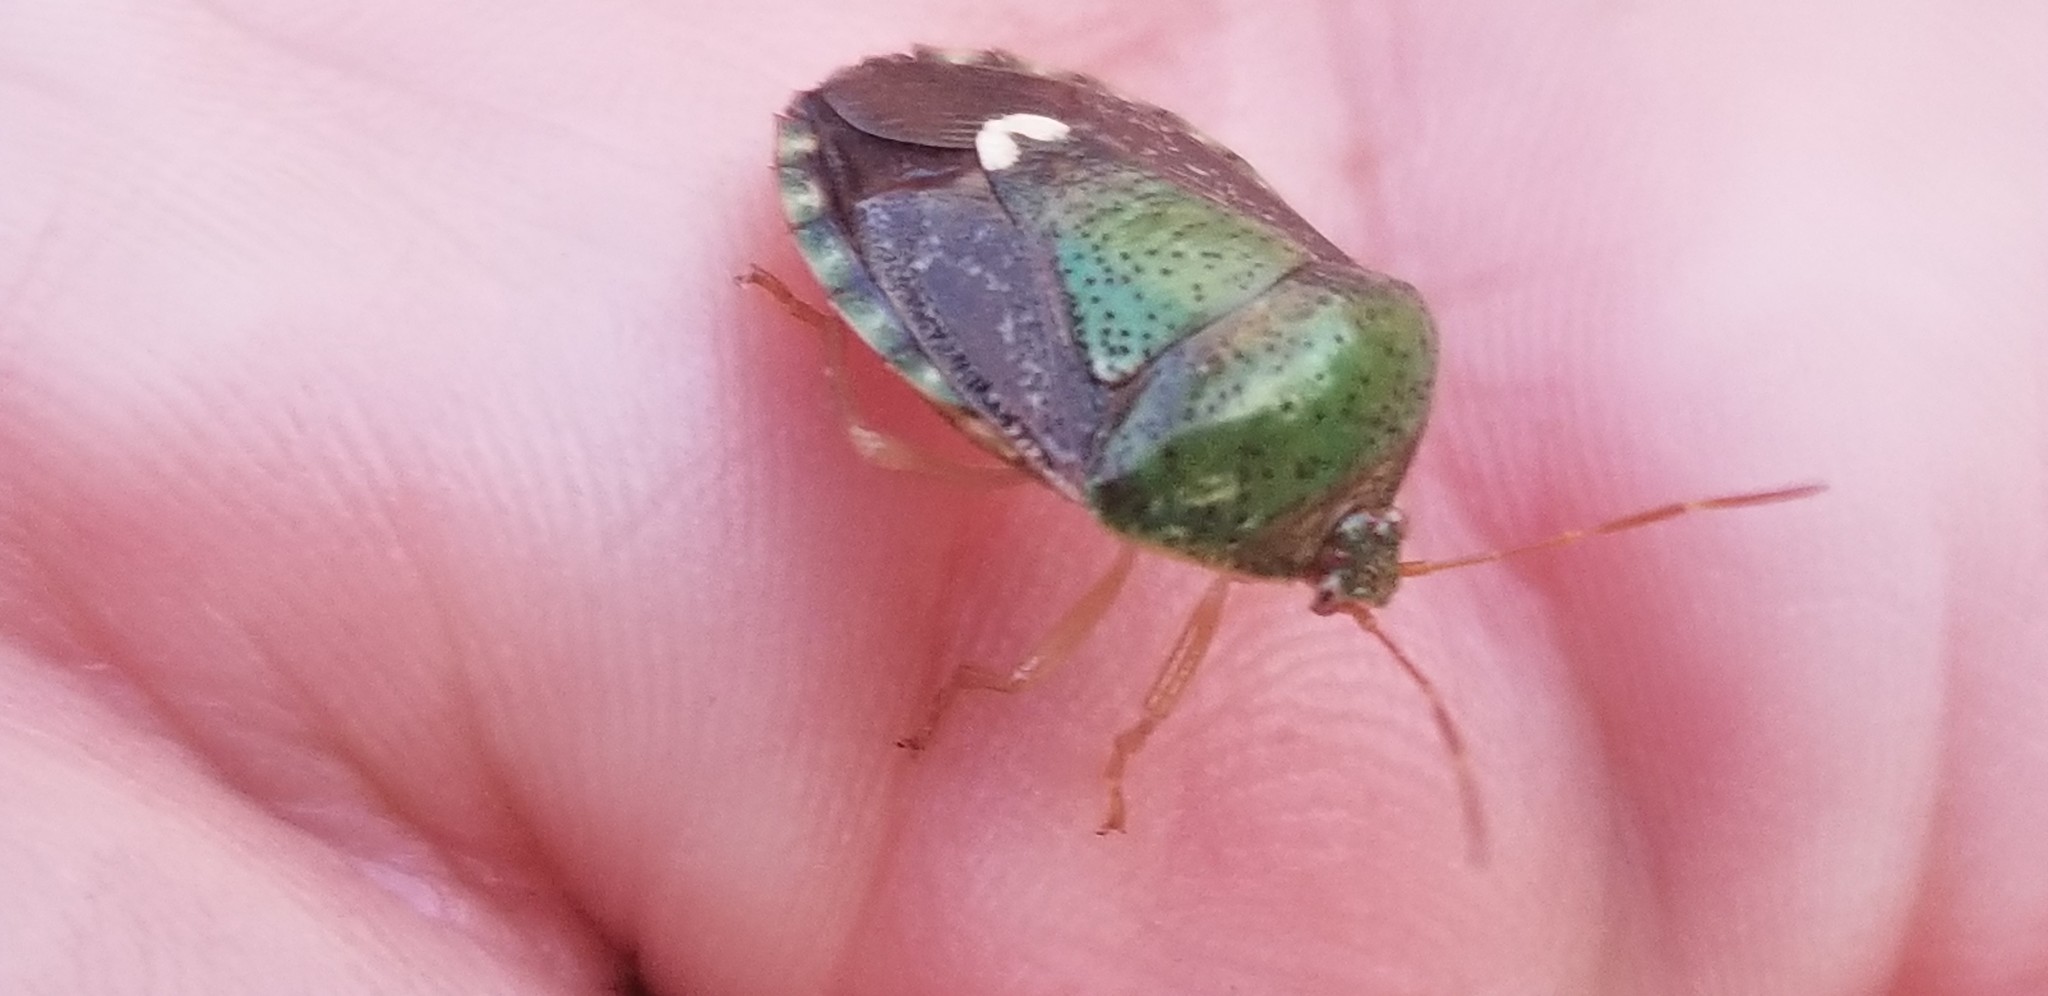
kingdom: Animalia
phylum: Arthropoda
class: Insecta
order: Hemiptera
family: Pentatomidae
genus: Edessa
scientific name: Edessa bifida
